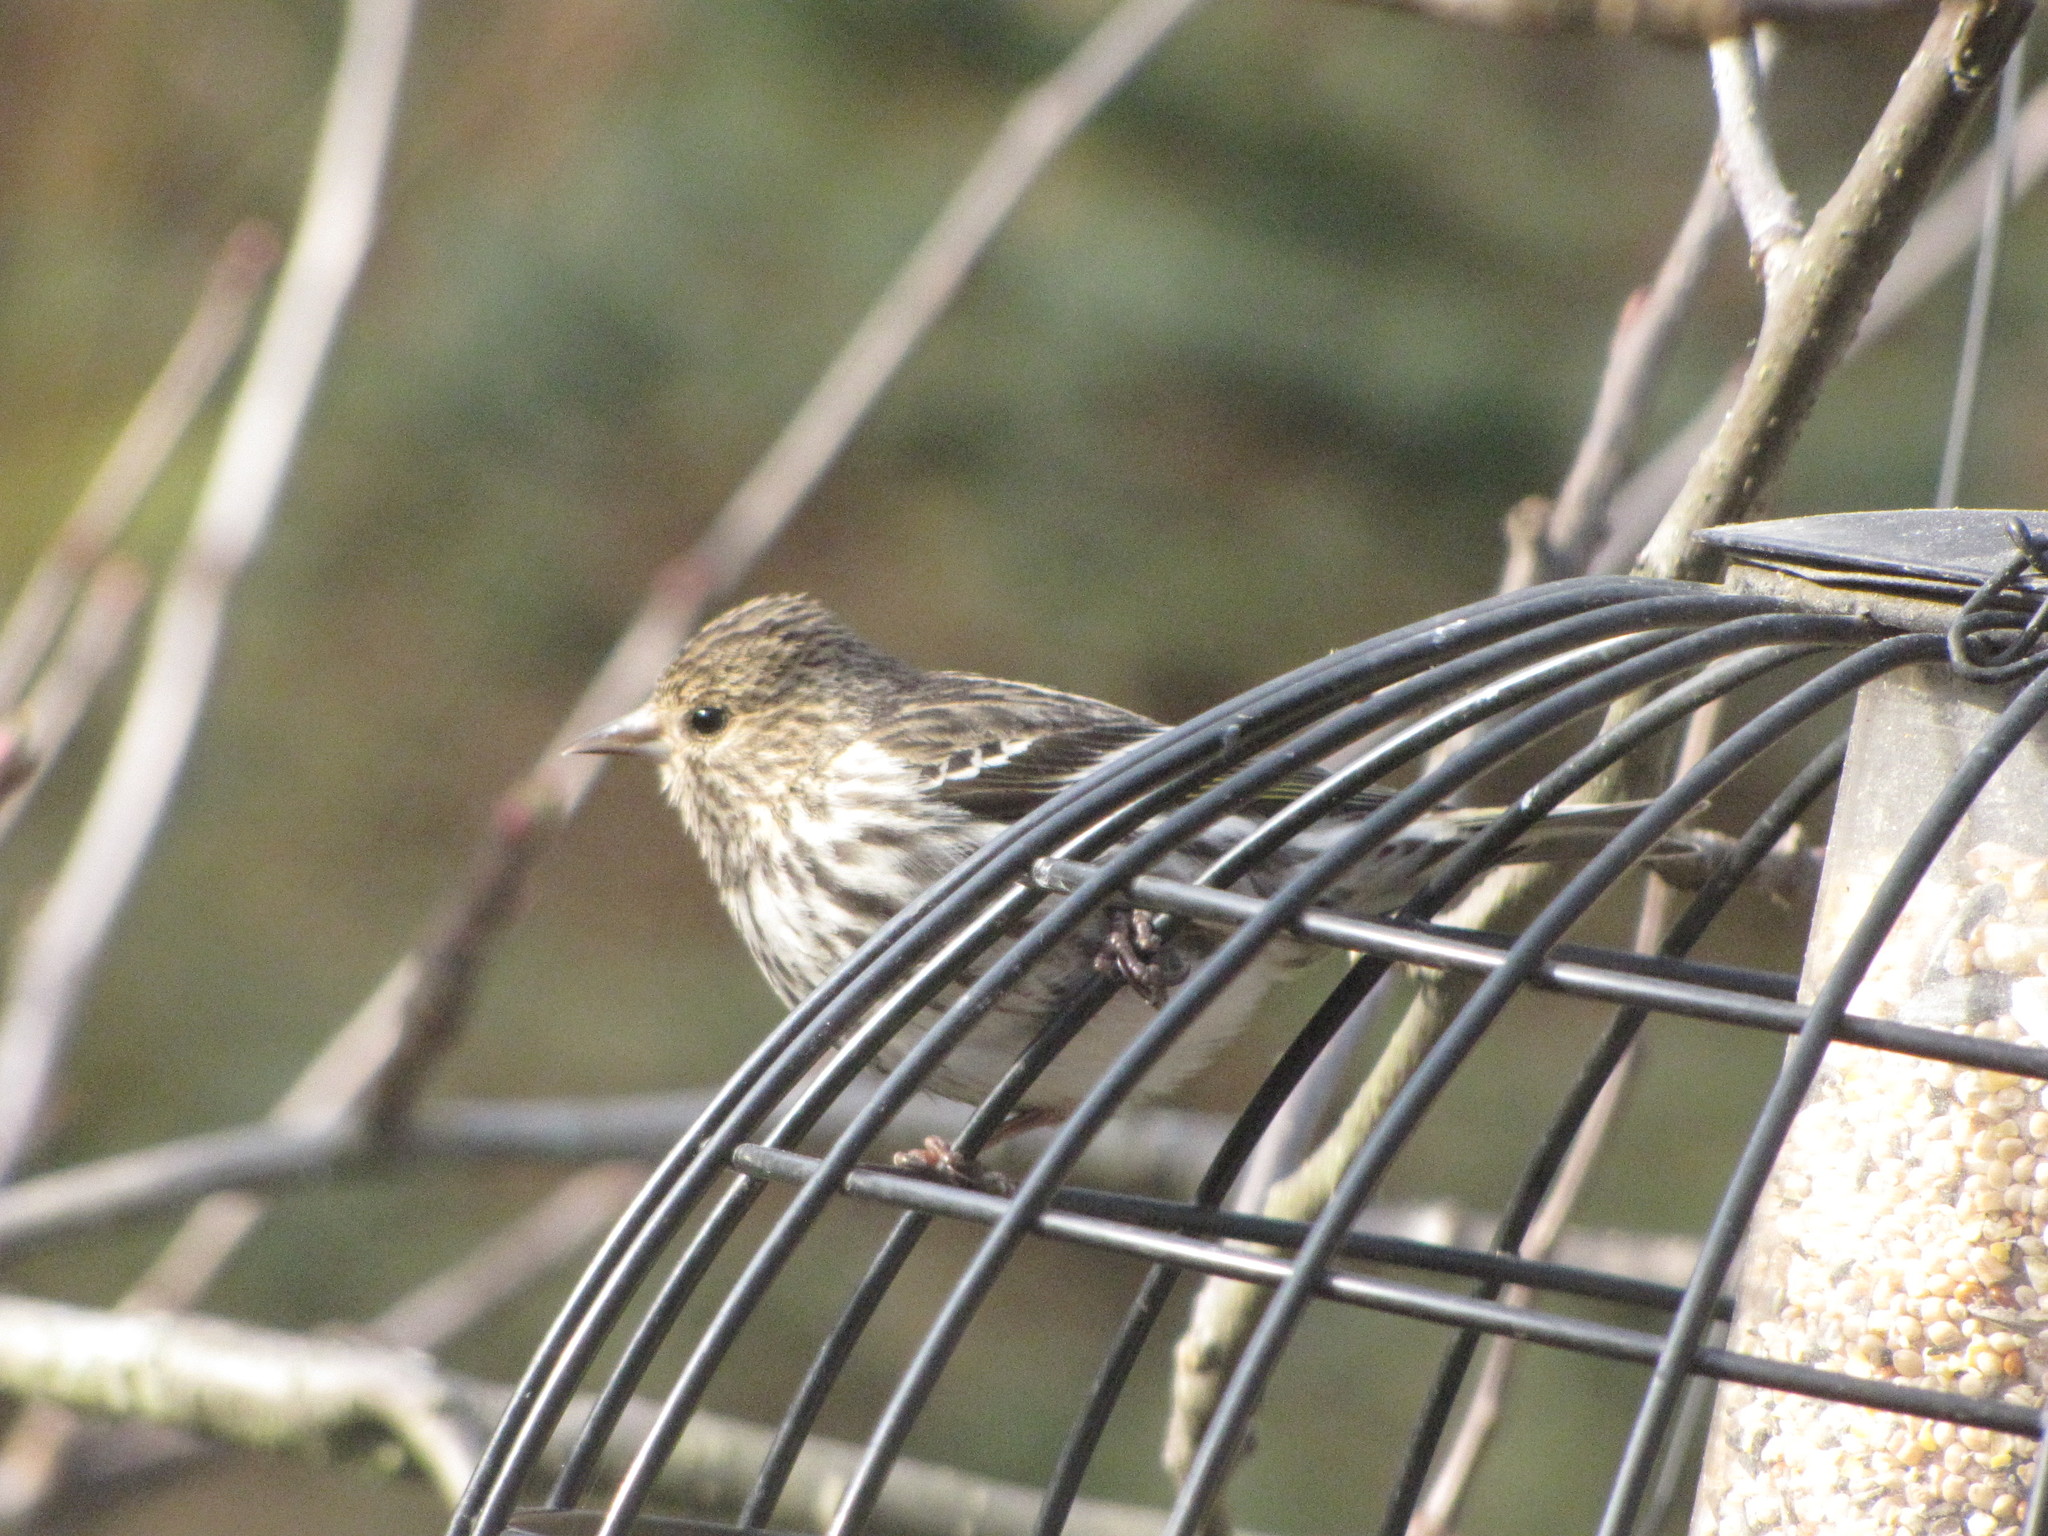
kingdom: Animalia
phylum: Chordata
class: Aves
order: Passeriformes
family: Fringillidae
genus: Spinus
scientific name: Spinus pinus
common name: Pine siskin
